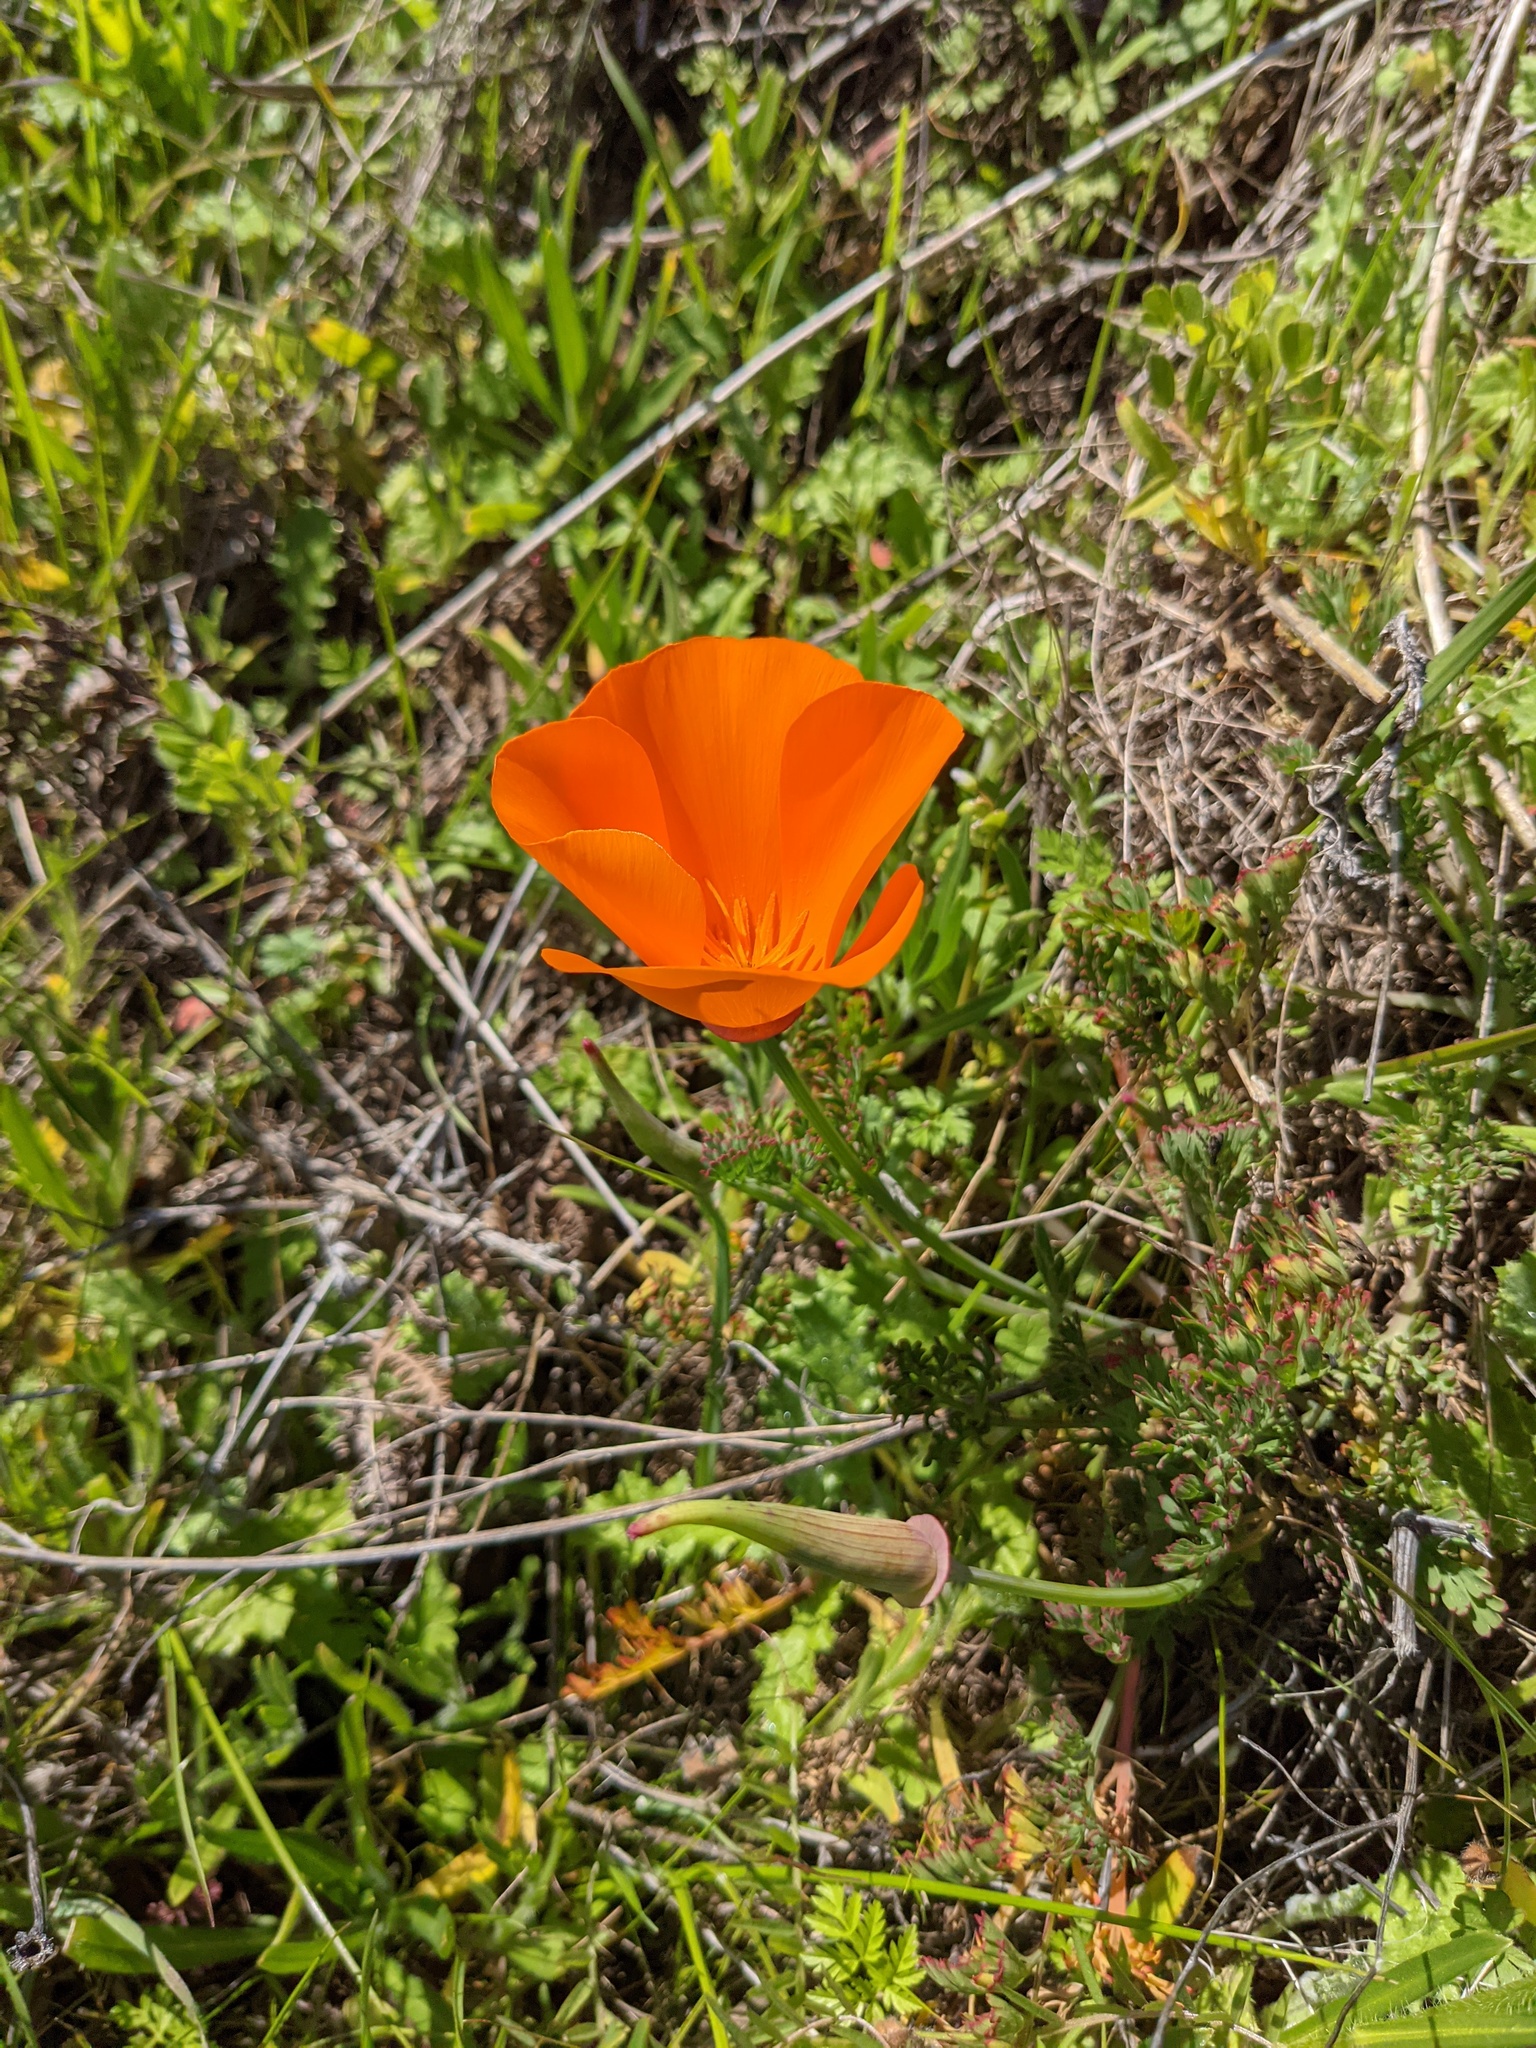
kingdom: Plantae
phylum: Tracheophyta
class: Magnoliopsida
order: Ranunculales
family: Papaveraceae
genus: Eschscholzia
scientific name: Eschscholzia californica
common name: California poppy
